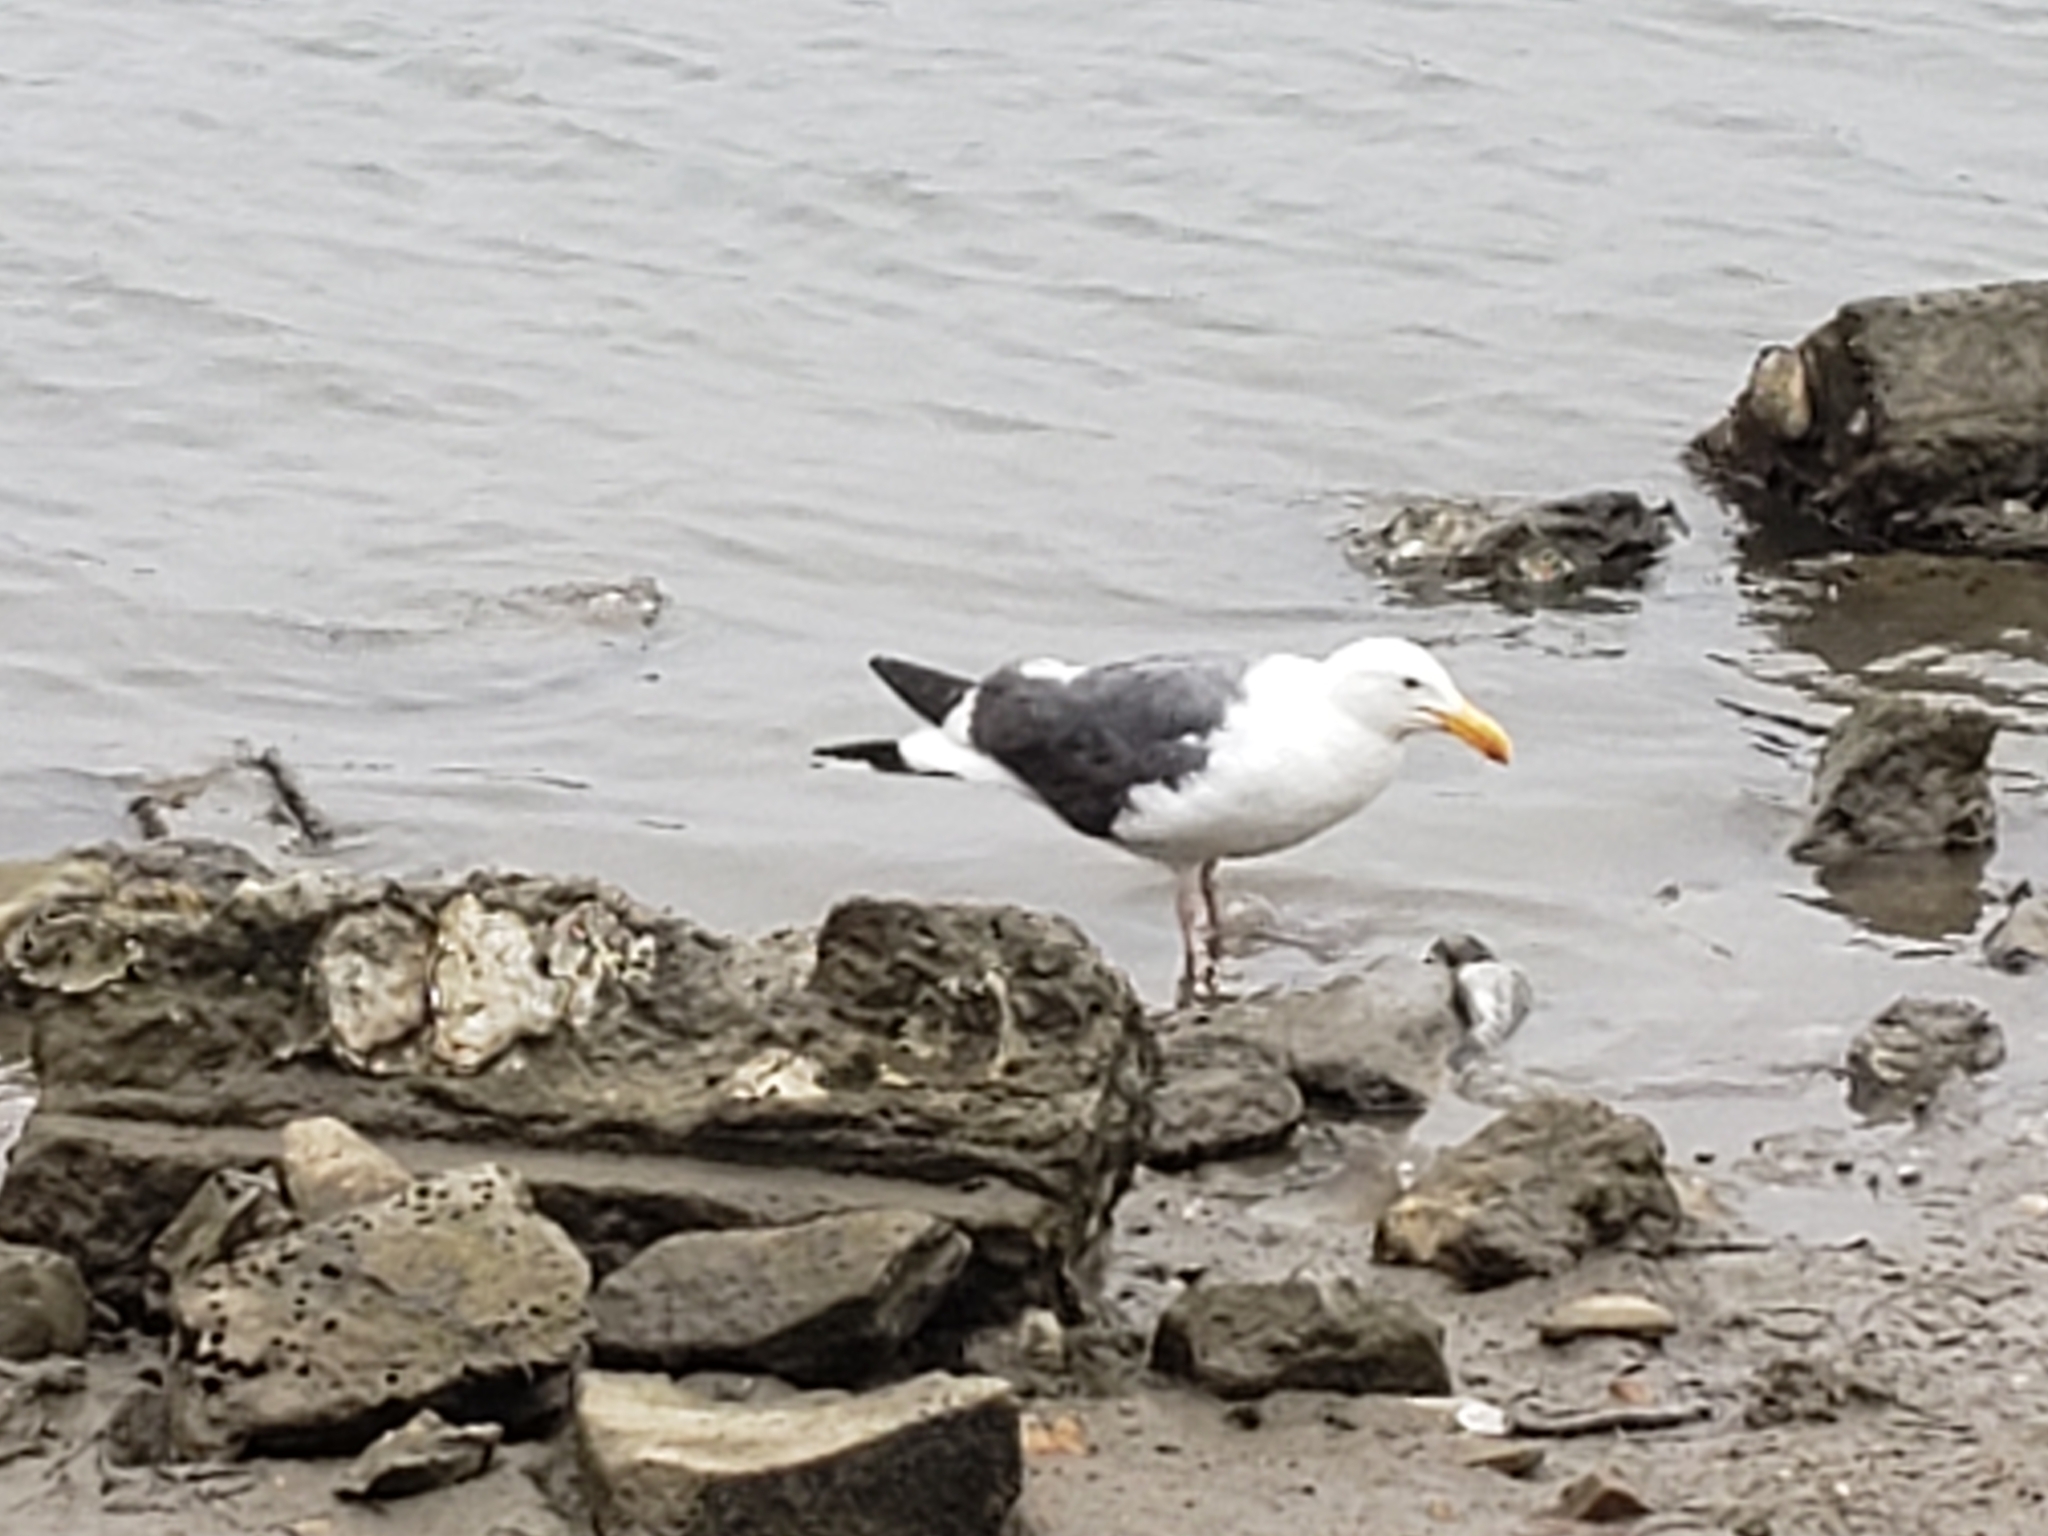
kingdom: Animalia
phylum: Chordata
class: Aves
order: Charadriiformes
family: Laridae
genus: Larus
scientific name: Larus occidentalis
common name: Western gull
